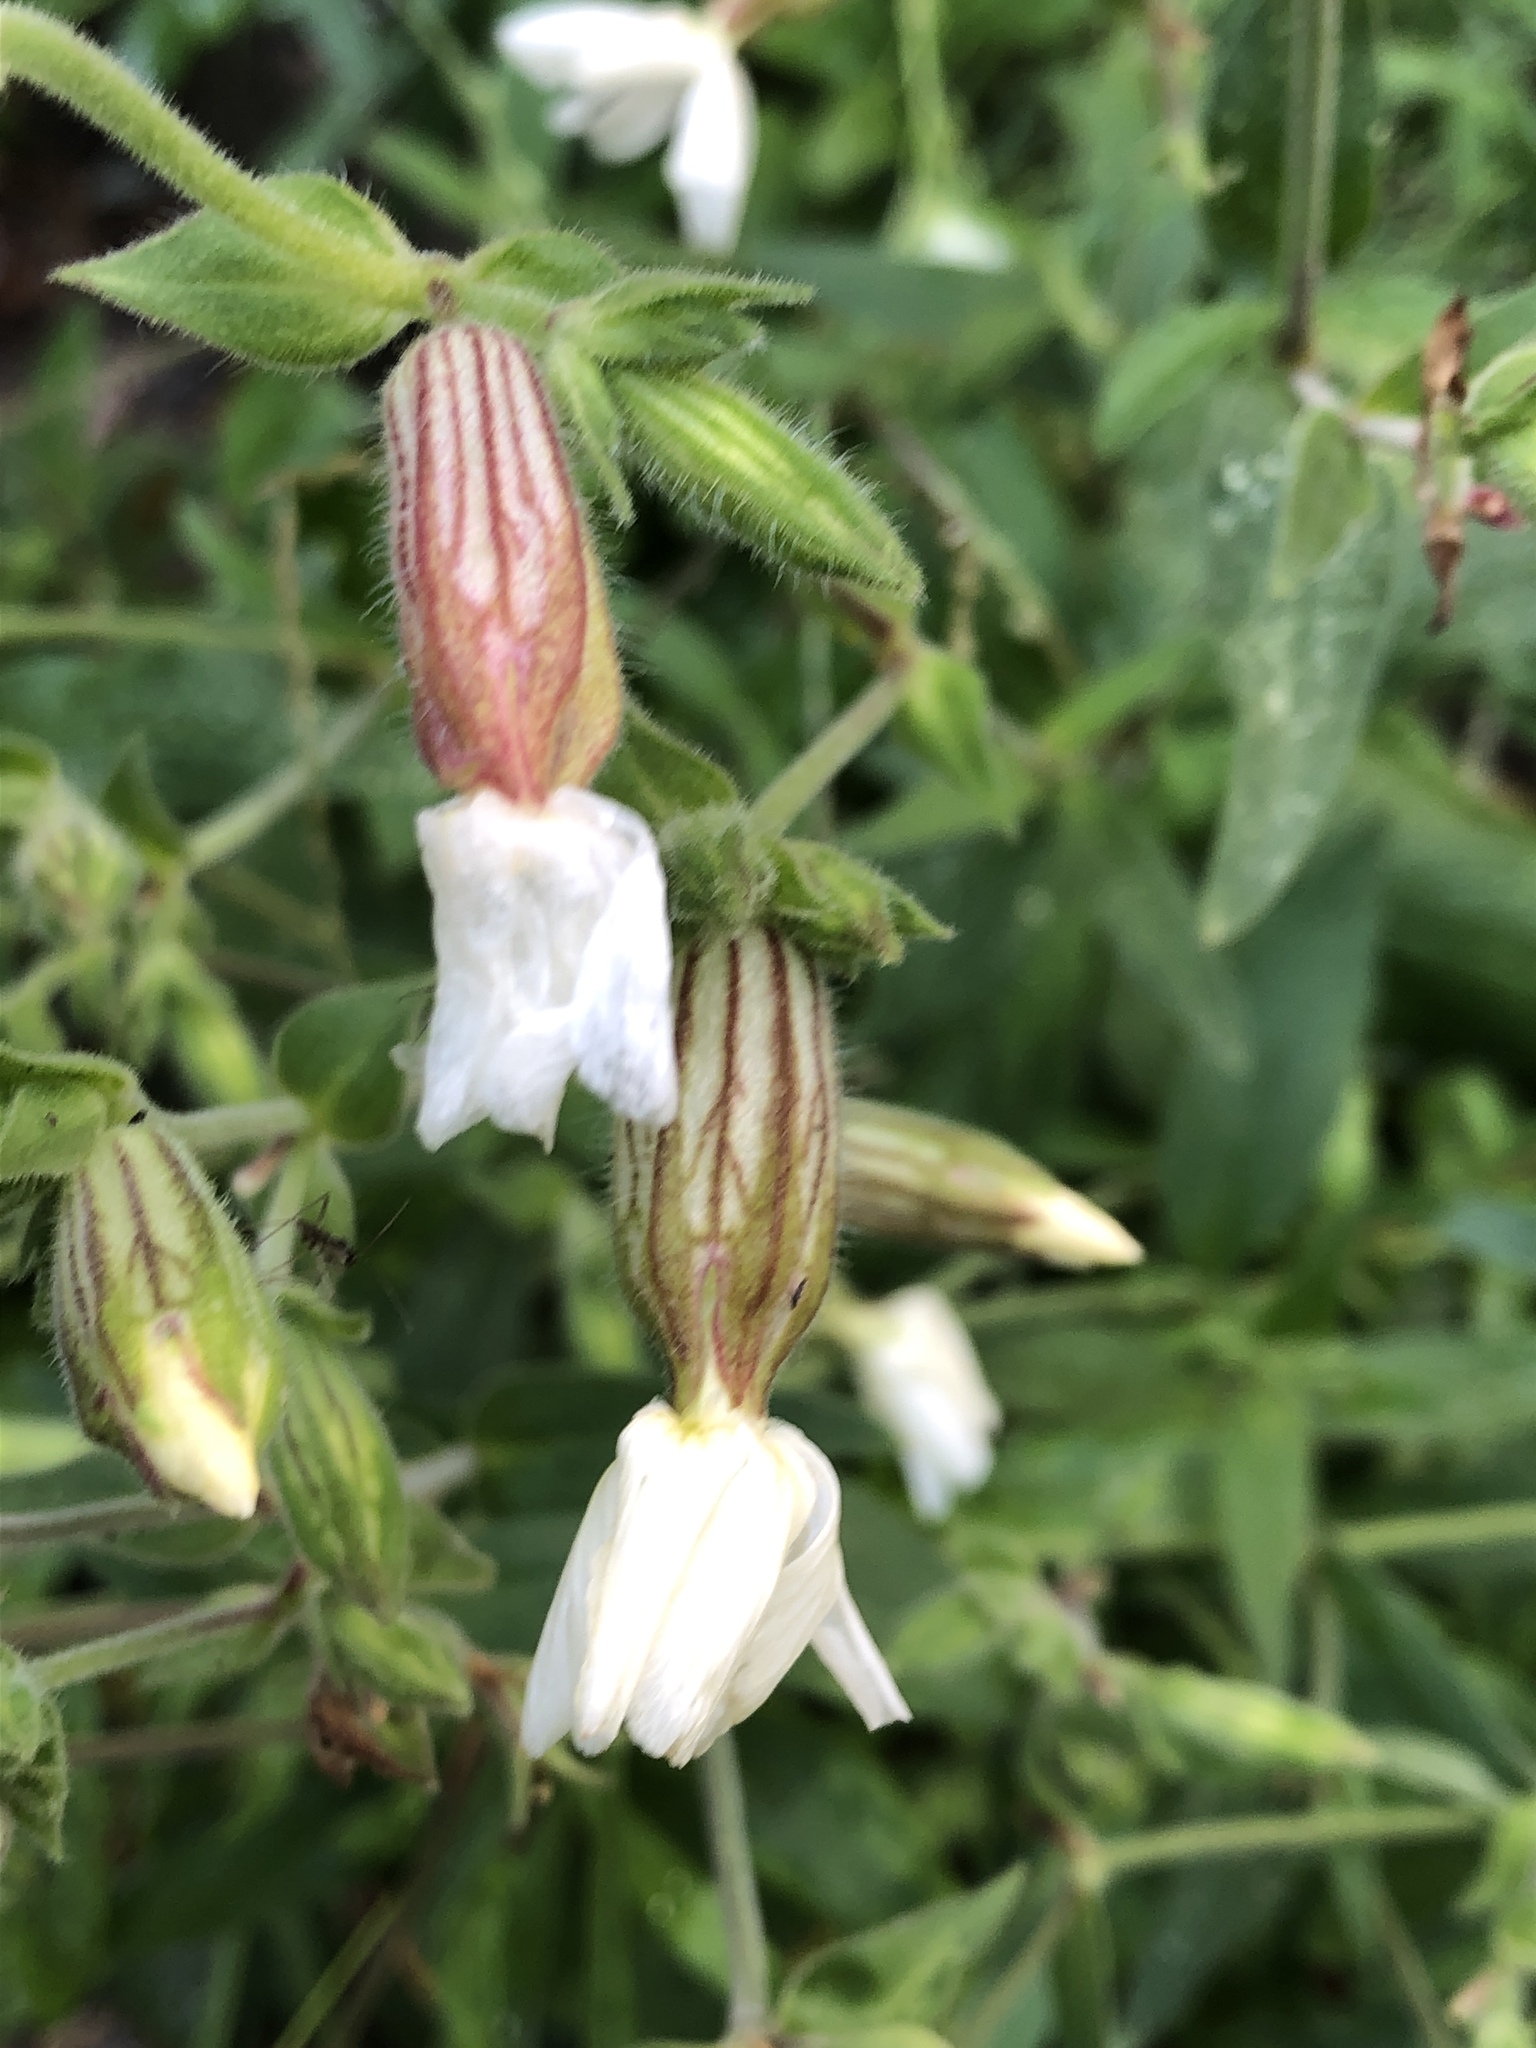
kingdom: Plantae
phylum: Tracheophyta
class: Magnoliopsida
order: Caryophyllales
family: Caryophyllaceae
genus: Silene
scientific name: Silene latifolia
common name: White campion
